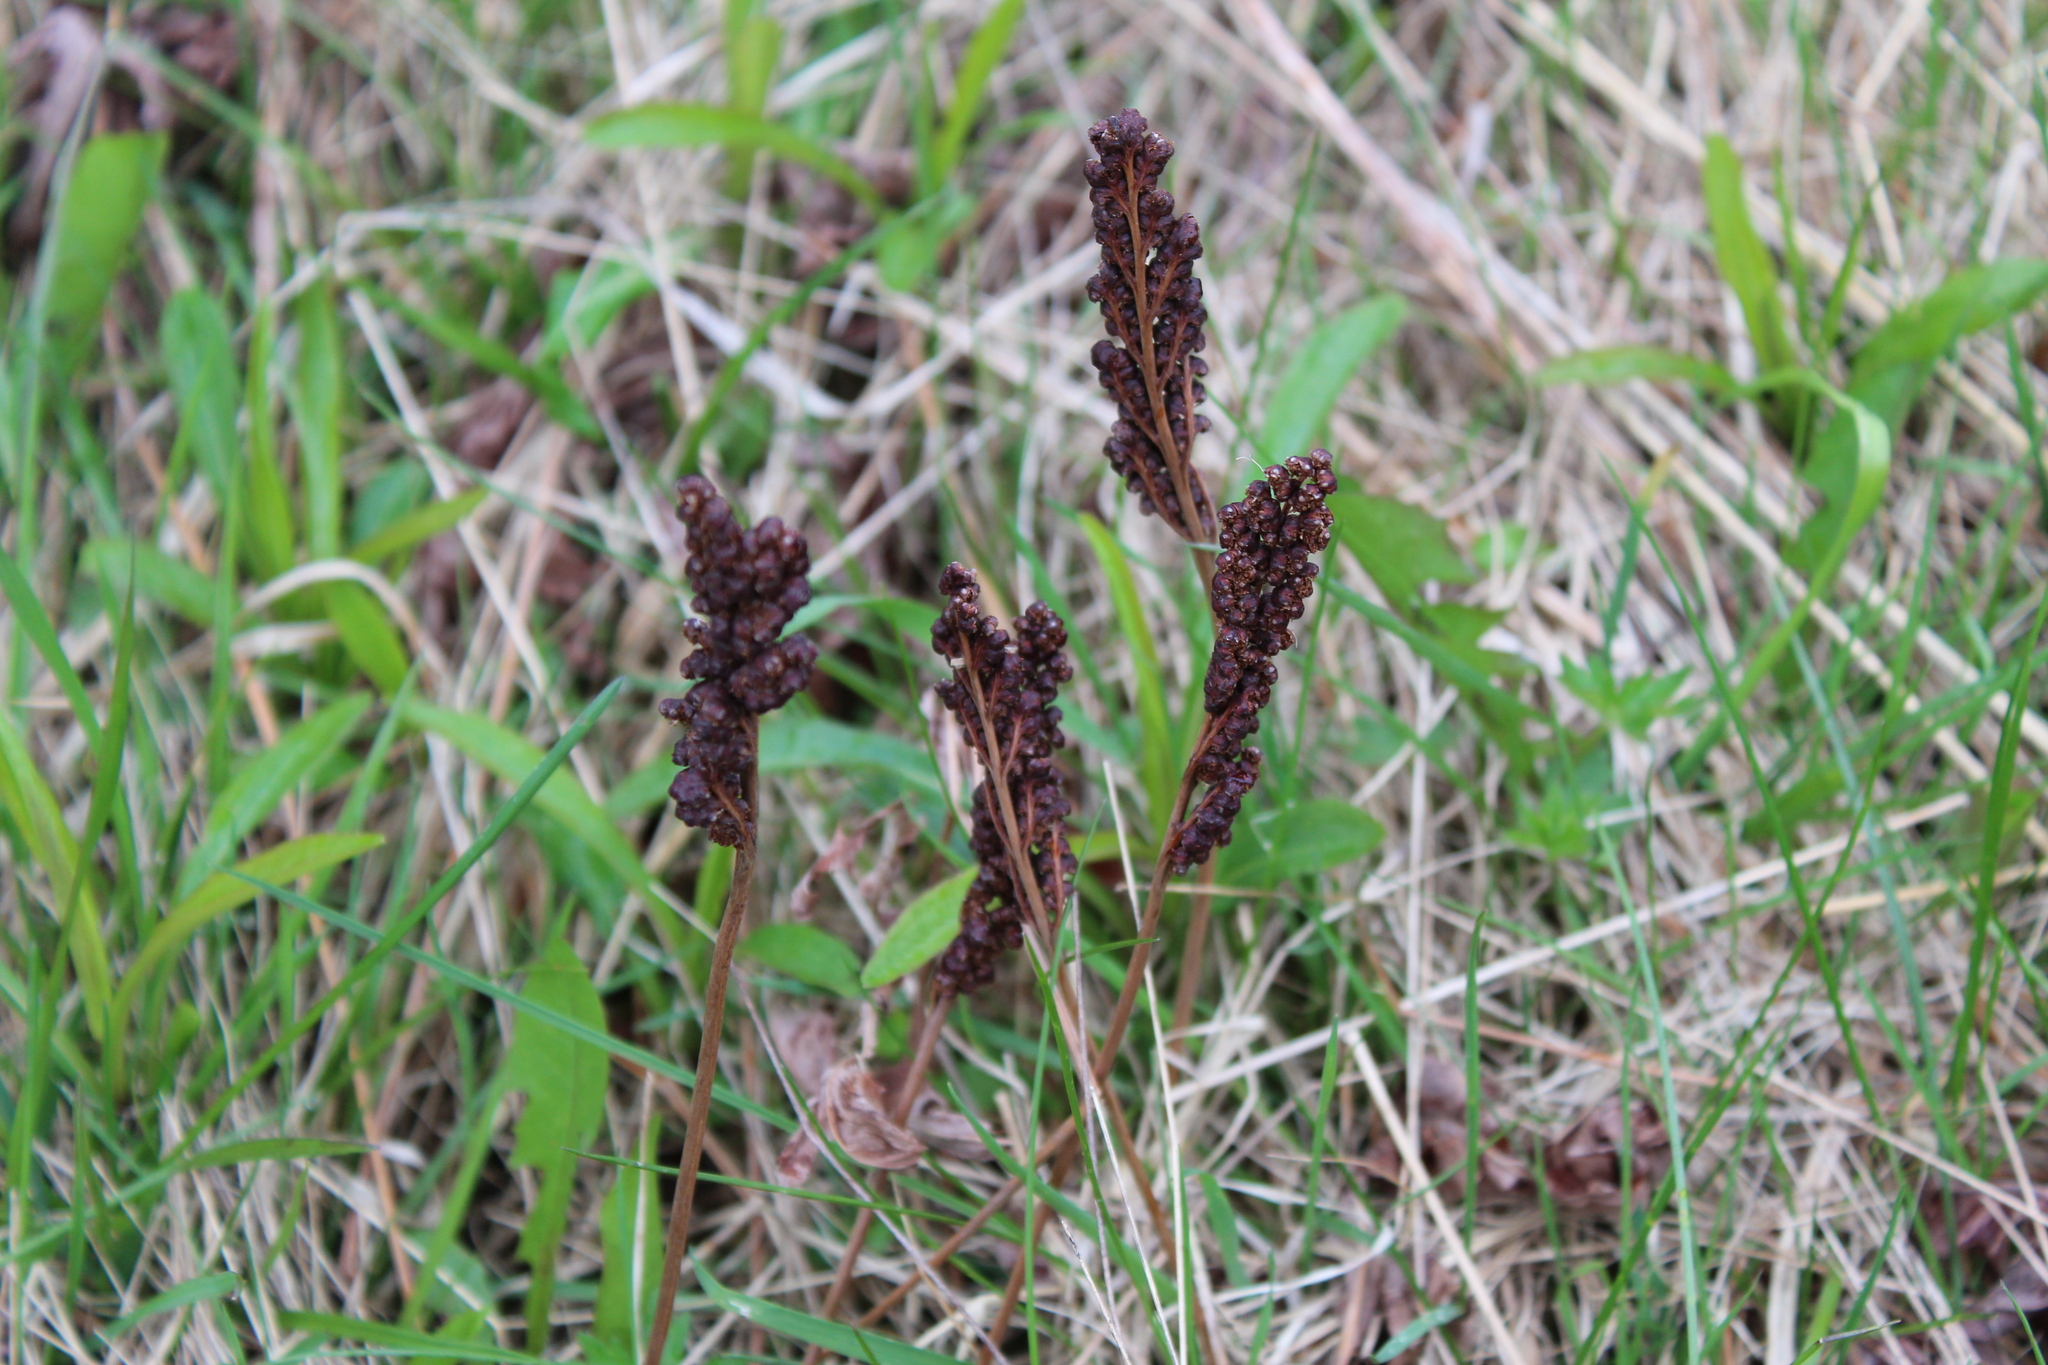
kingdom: Plantae
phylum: Tracheophyta
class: Polypodiopsida
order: Polypodiales
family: Onocleaceae
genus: Onoclea
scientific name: Onoclea sensibilis
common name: Sensitive fern
